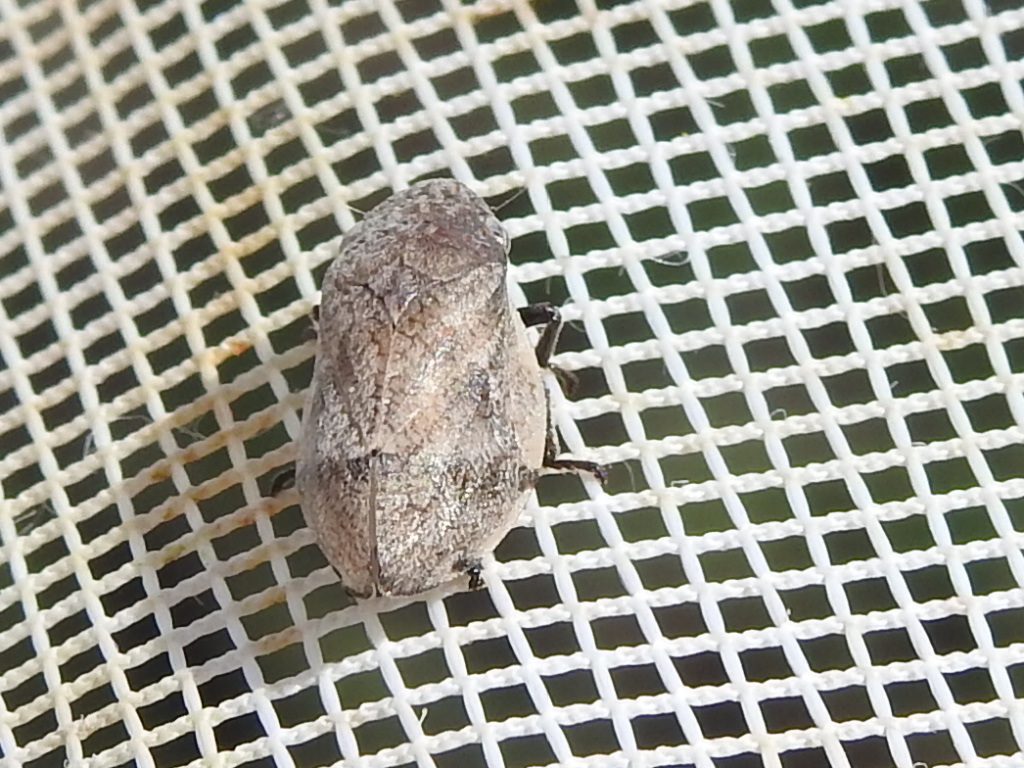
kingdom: Animalia
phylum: Arthropoda
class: Insecta
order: Hemiptera
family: Aphrophoridae
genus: Lepyronia
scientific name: Lepyronia gibbosa
